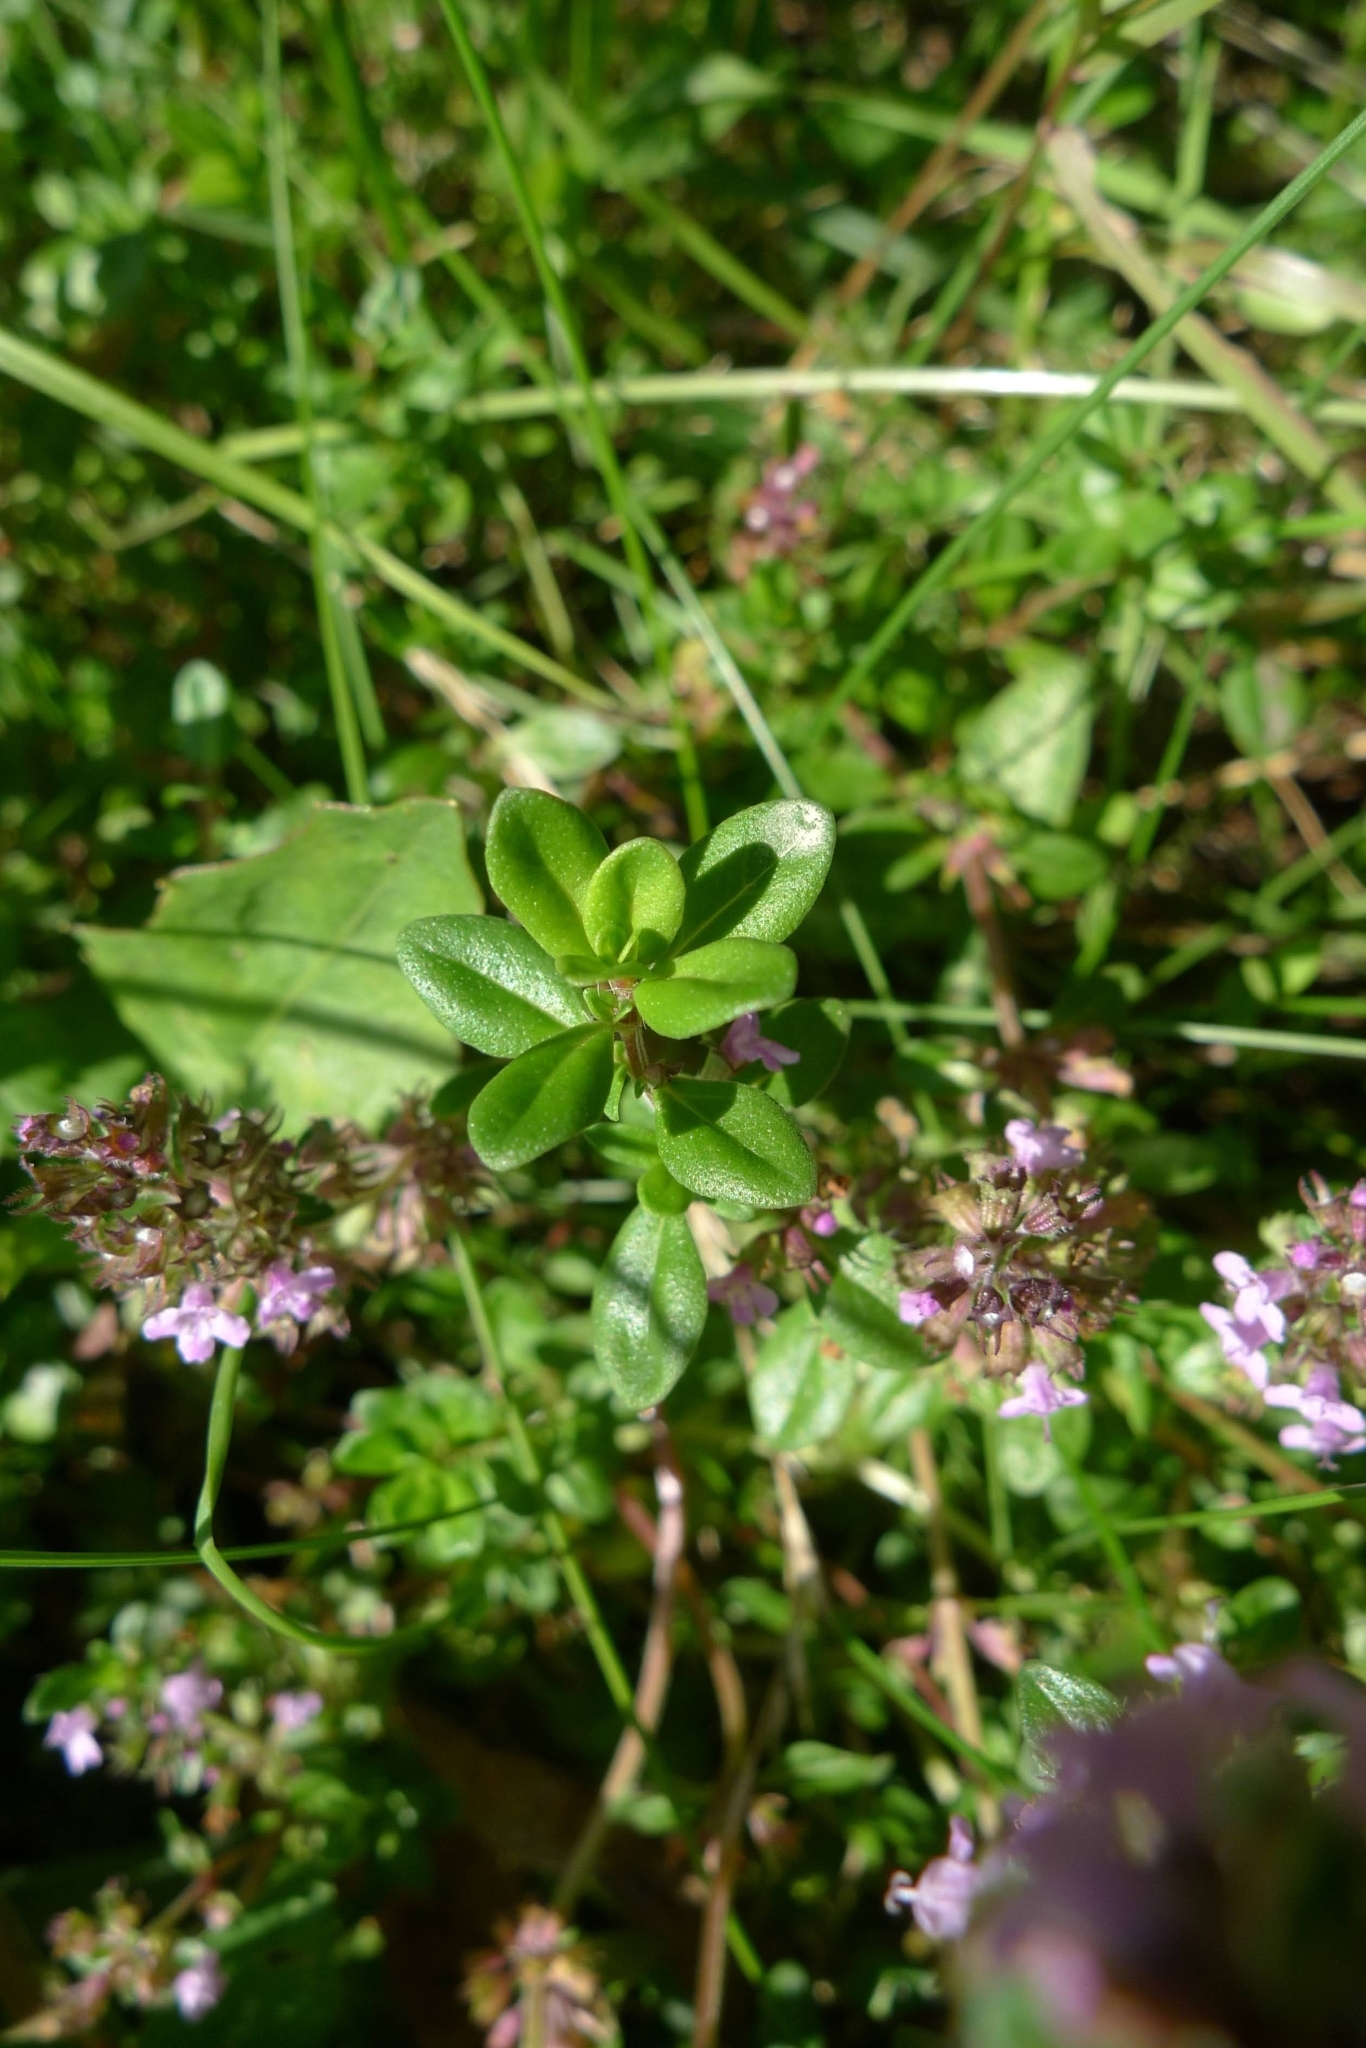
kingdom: Plantae
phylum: Tracheophyta
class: Magnoliopsida
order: Lamiales
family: Lamiaceae
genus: Thymus
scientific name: Thymus pulegioides
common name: Large thyme
